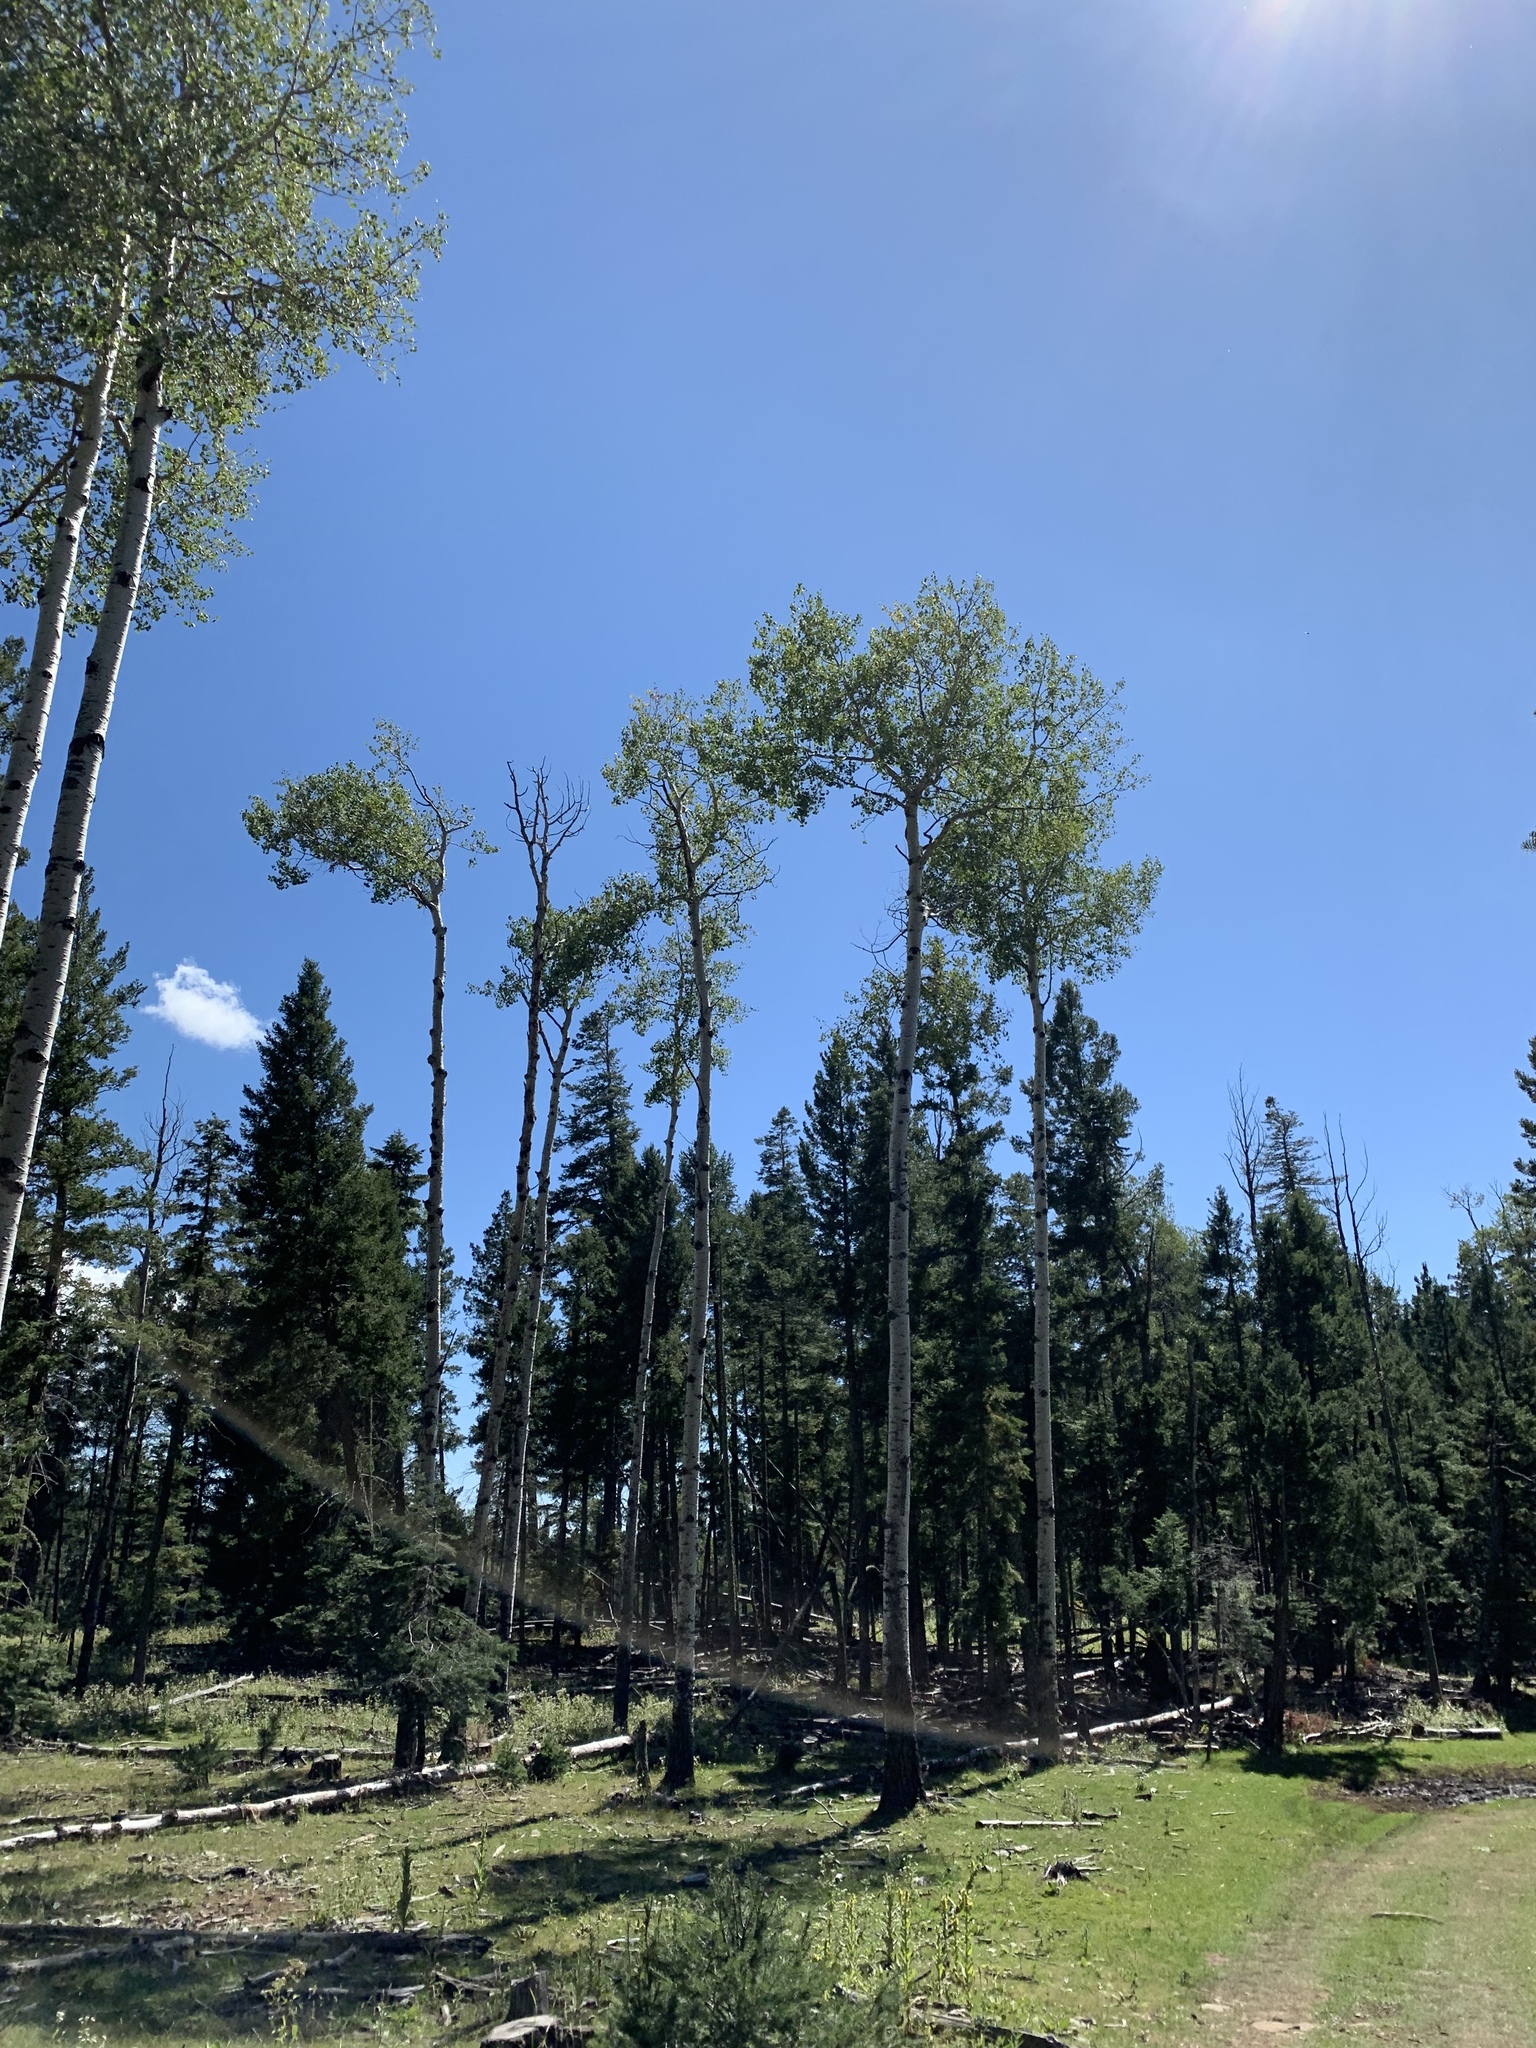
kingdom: Plantae
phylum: Tracheophyta
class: Magnoliopsida
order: Malpighiales
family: Salicaceae
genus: Populus
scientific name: Populus tremuloides
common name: Quaking aspen
